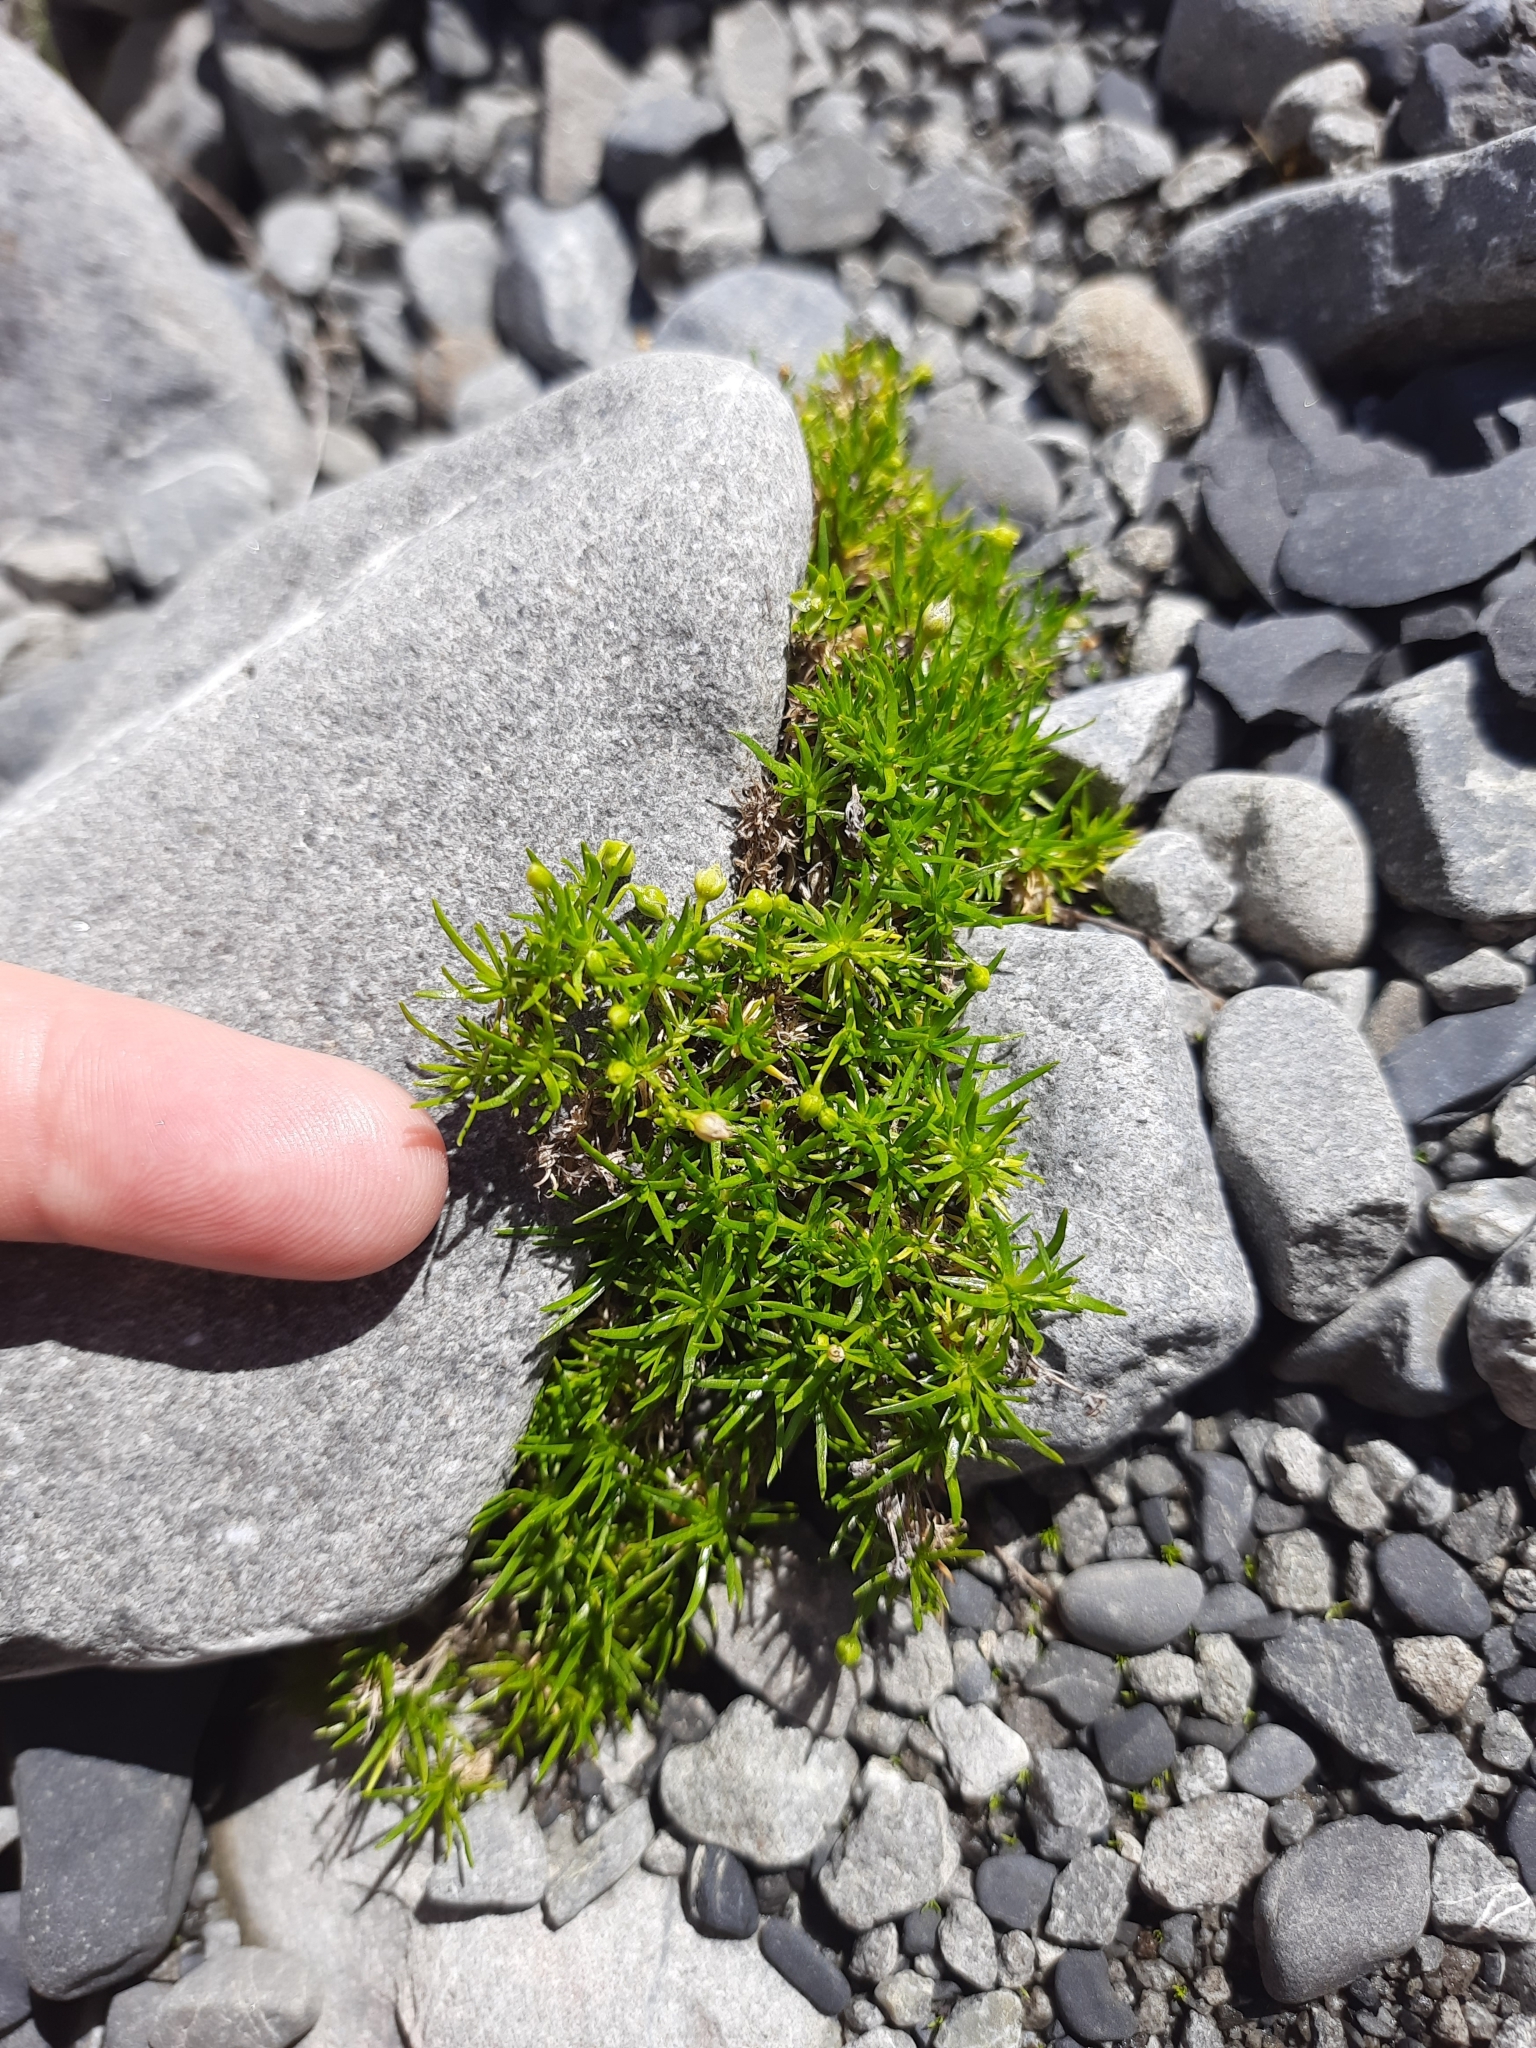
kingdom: Plantae
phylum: Tracheophyta
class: Magnoliopsida
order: Caryophyllales
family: Caryophyllaceae
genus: Sagina
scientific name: Sagina procumbens
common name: Procumbent pearlwort
